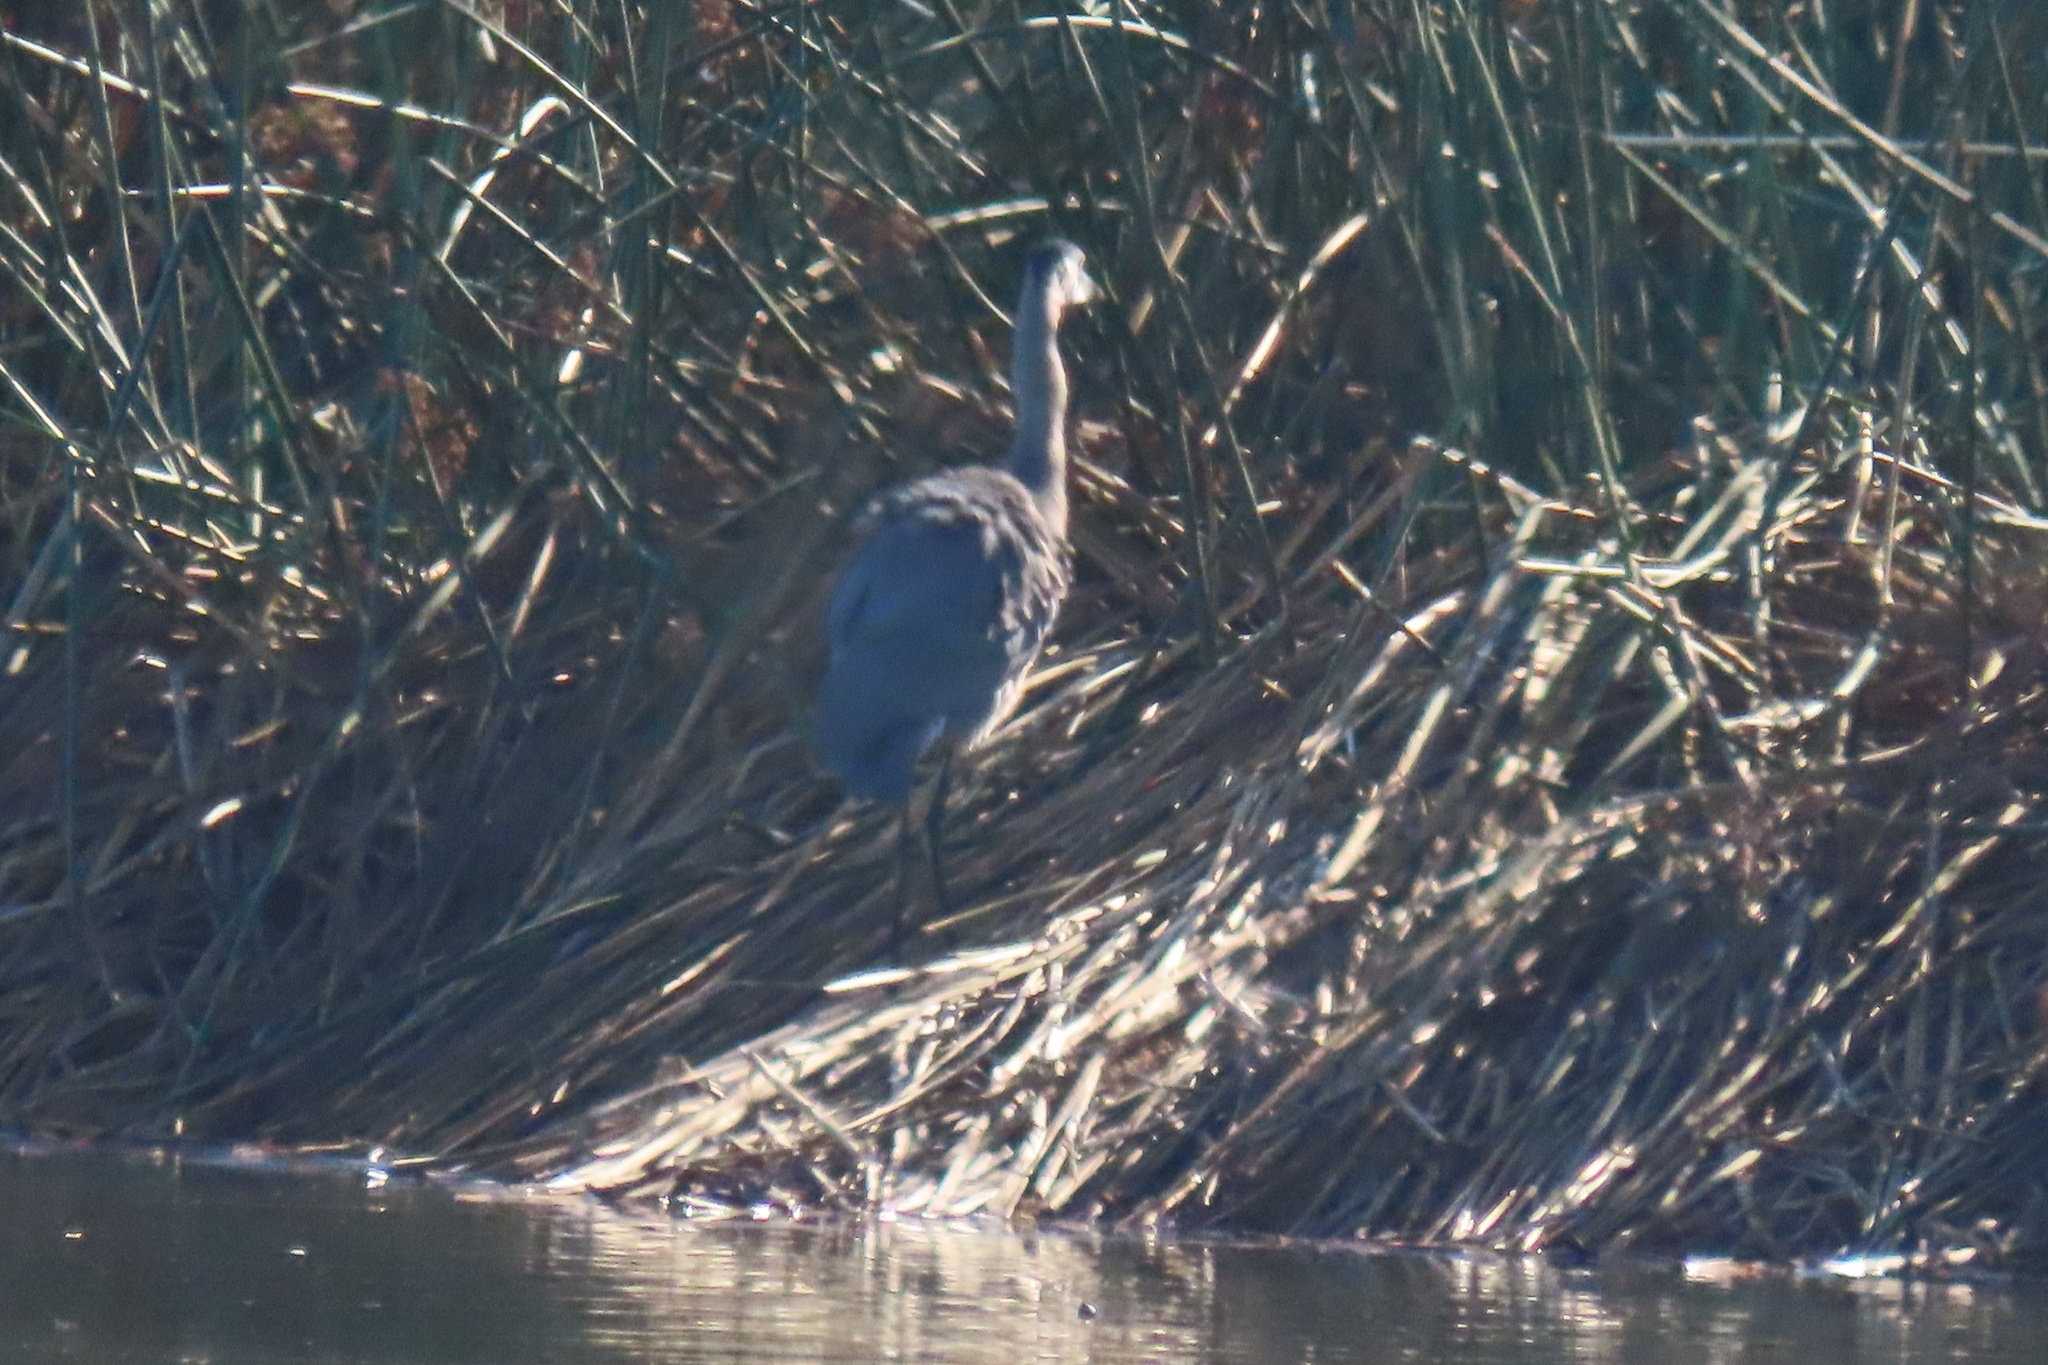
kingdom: Animalia
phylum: Chordata
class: Aves
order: Pelecaniformes
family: Ardeidae
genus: Ardea
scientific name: Ardea herodias
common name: Great blue heron
